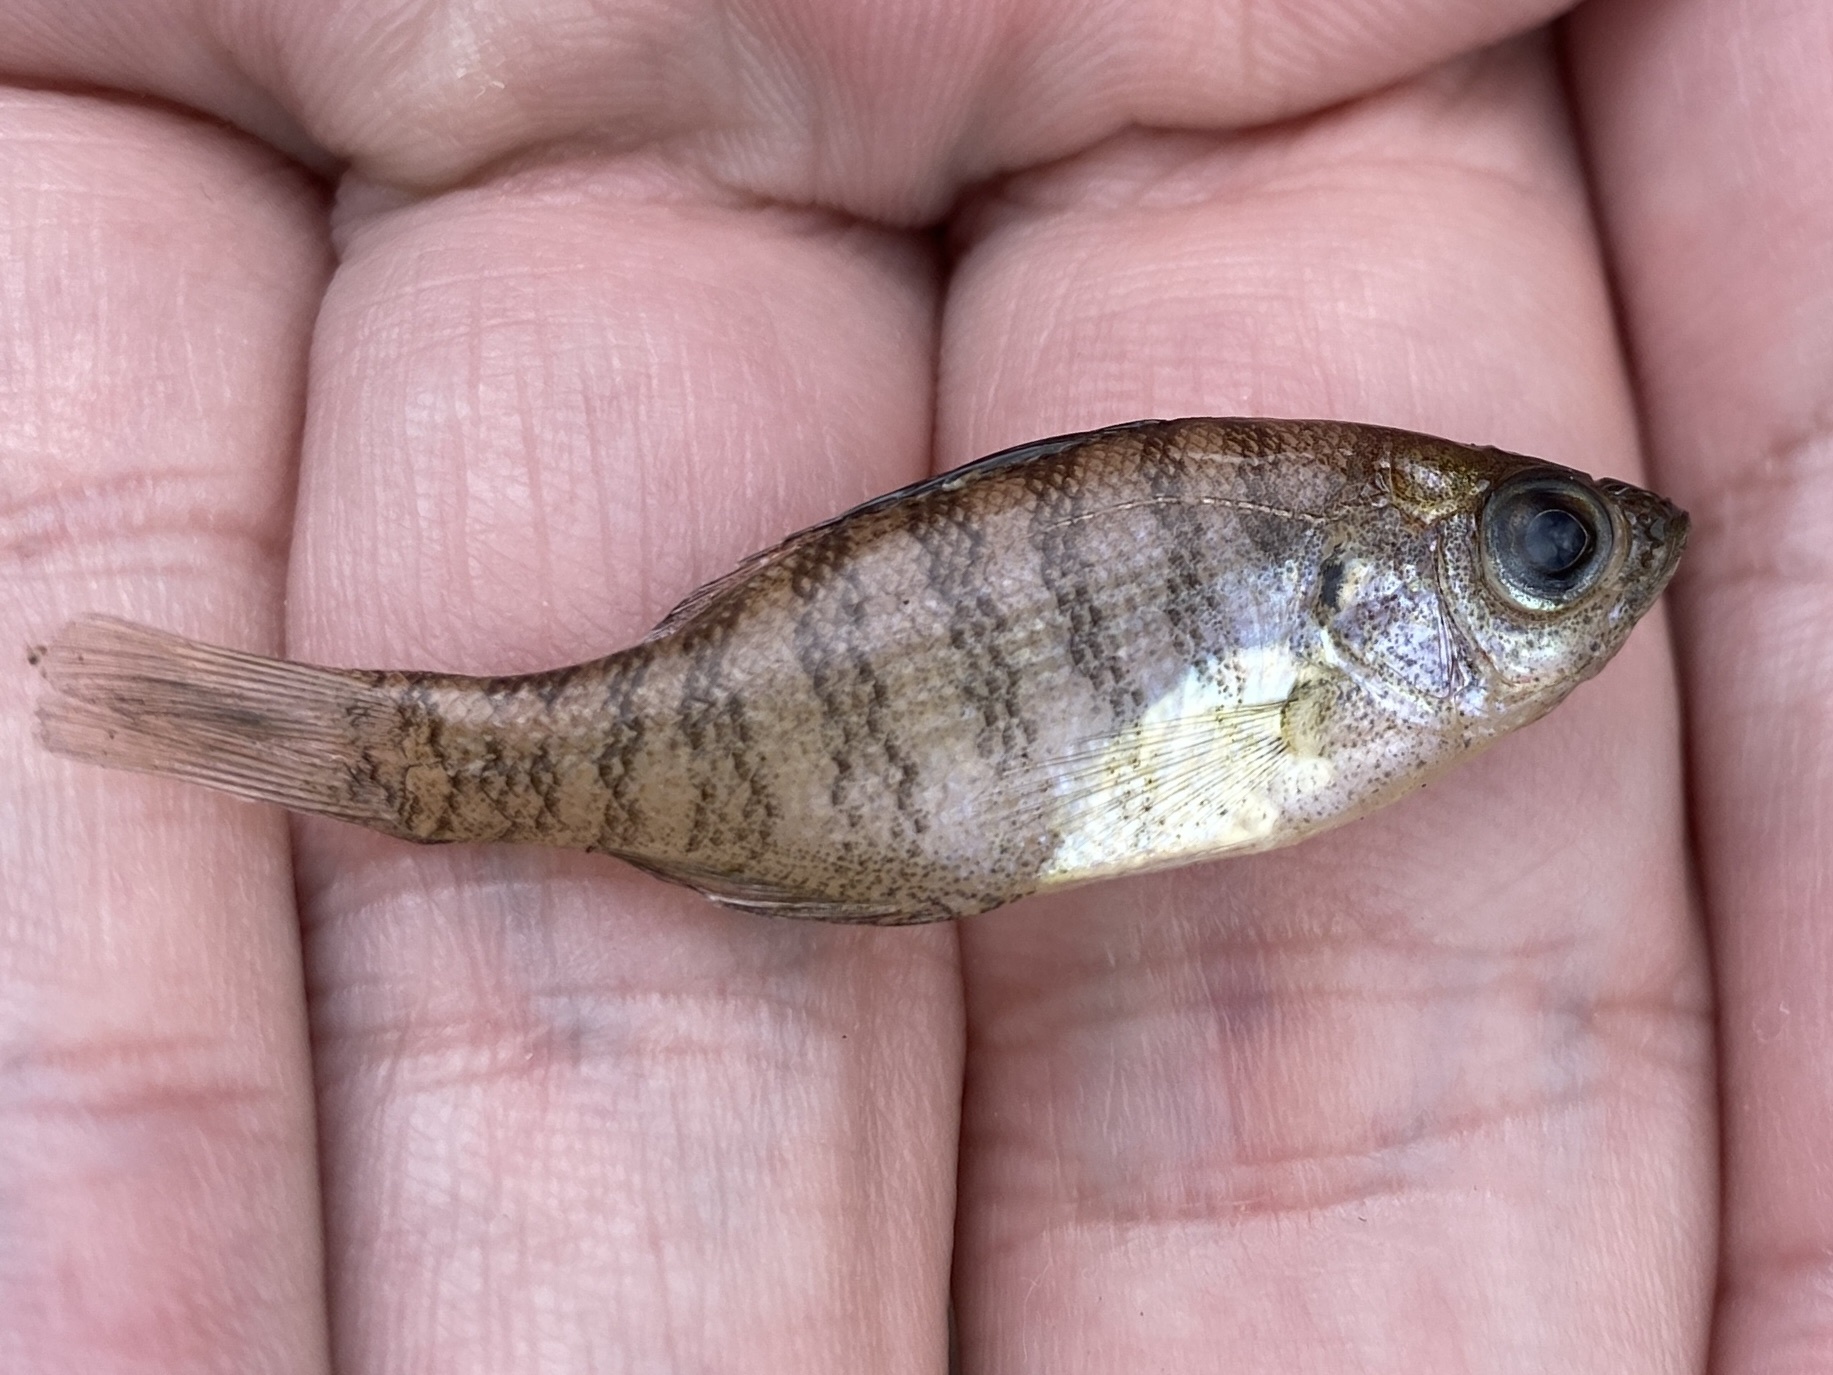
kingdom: Animalia
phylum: Chordata
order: Perciformes
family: Centrarchidae
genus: Lepomis
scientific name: Lepomis macrochirus
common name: Bluegill
